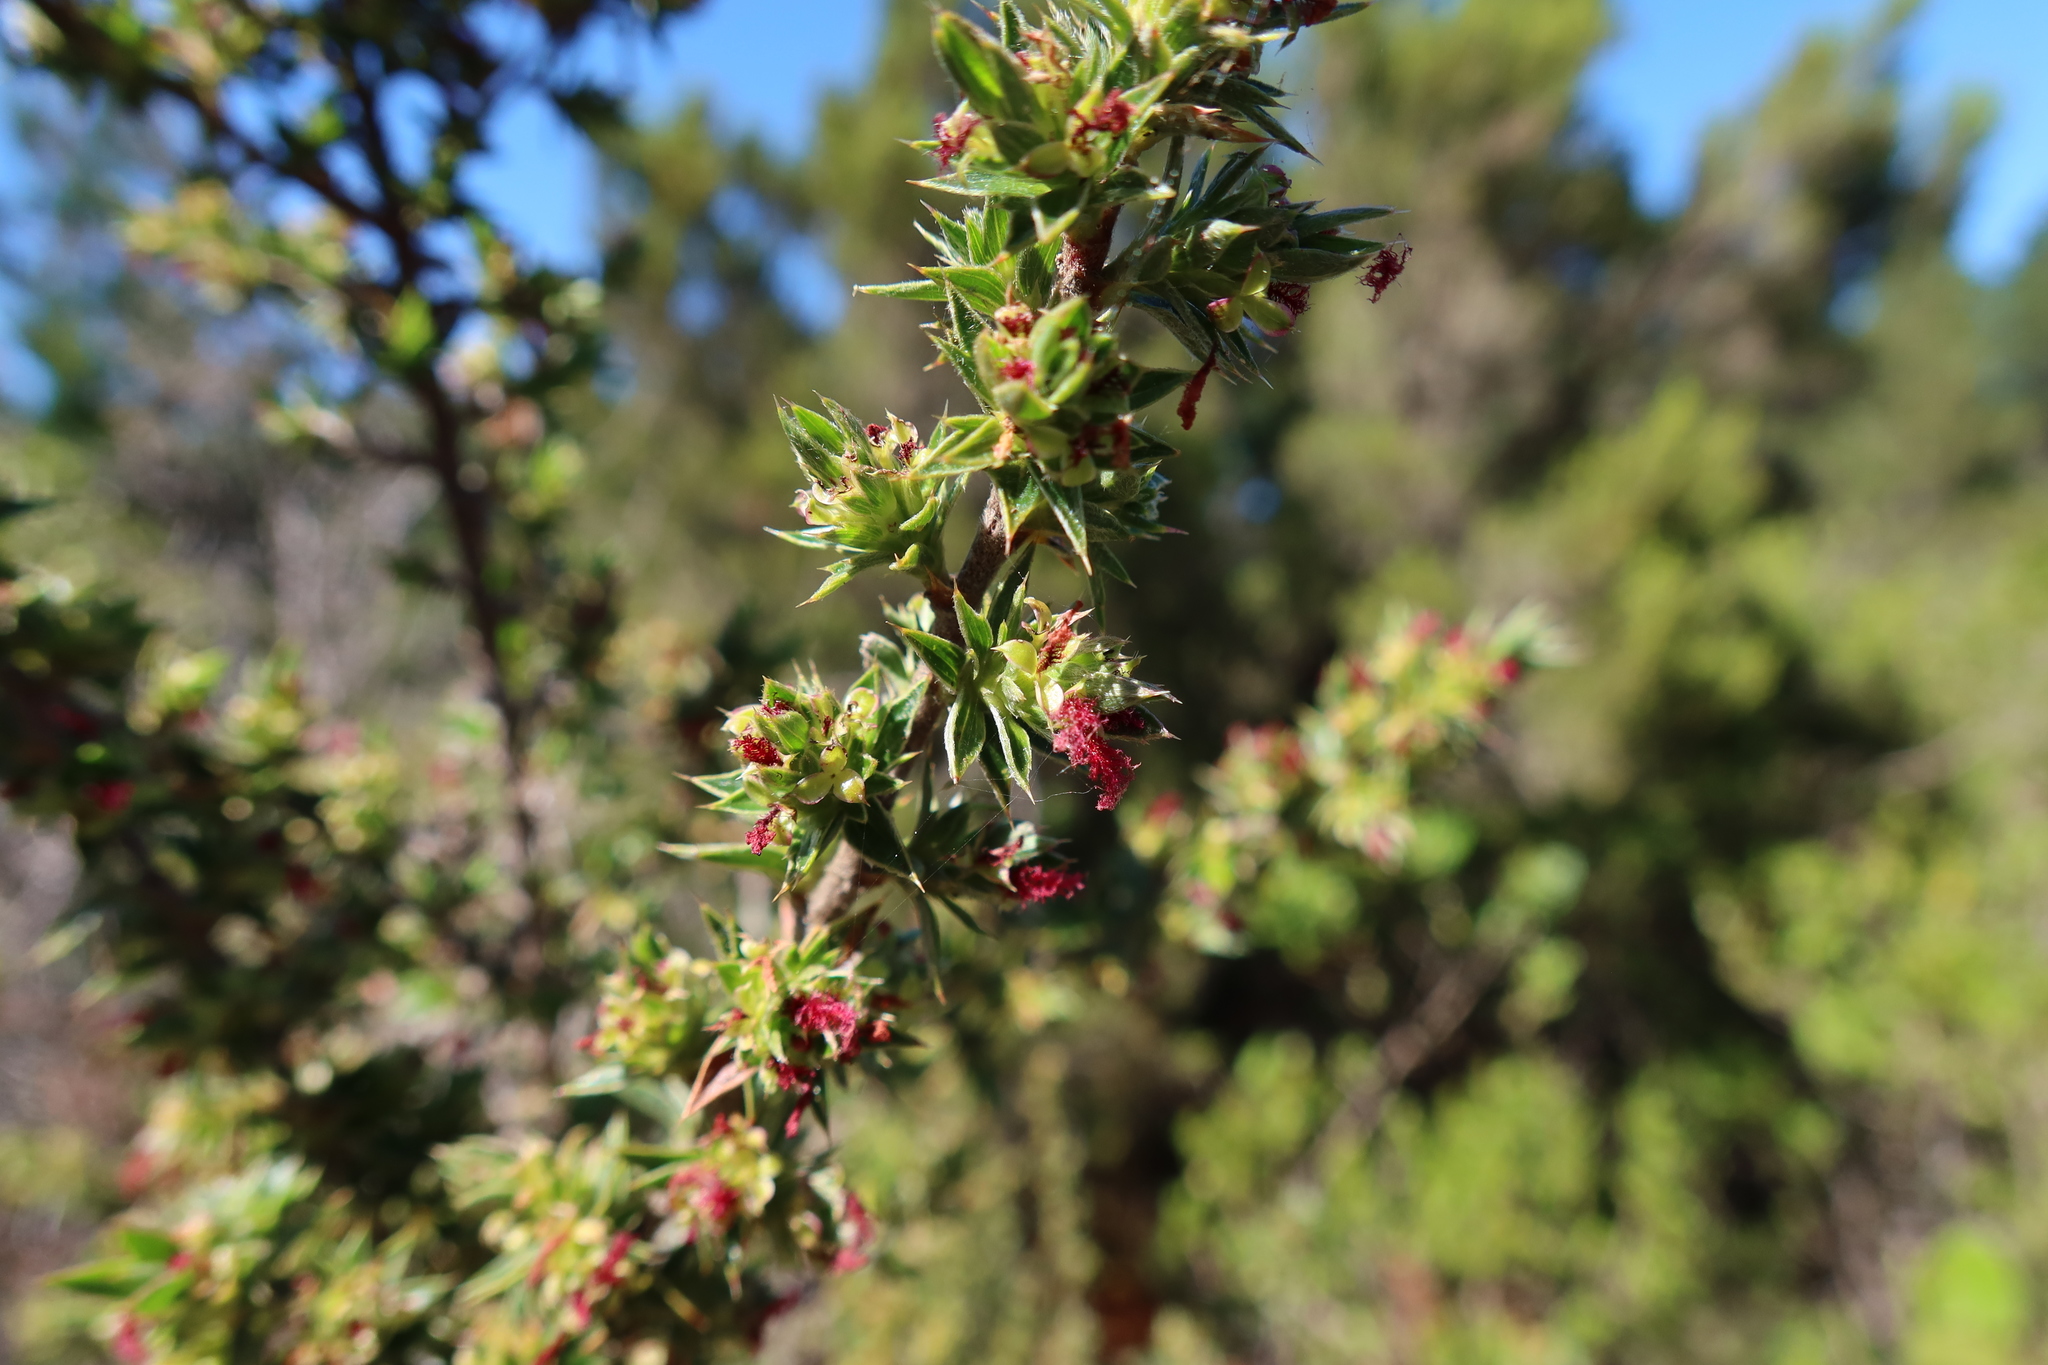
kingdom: Plantae
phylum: Tracheophyta
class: Magnoliopsida
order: Rosales
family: Rosaceae
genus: Cliffortia
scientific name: Cliffortia ruscifolia
